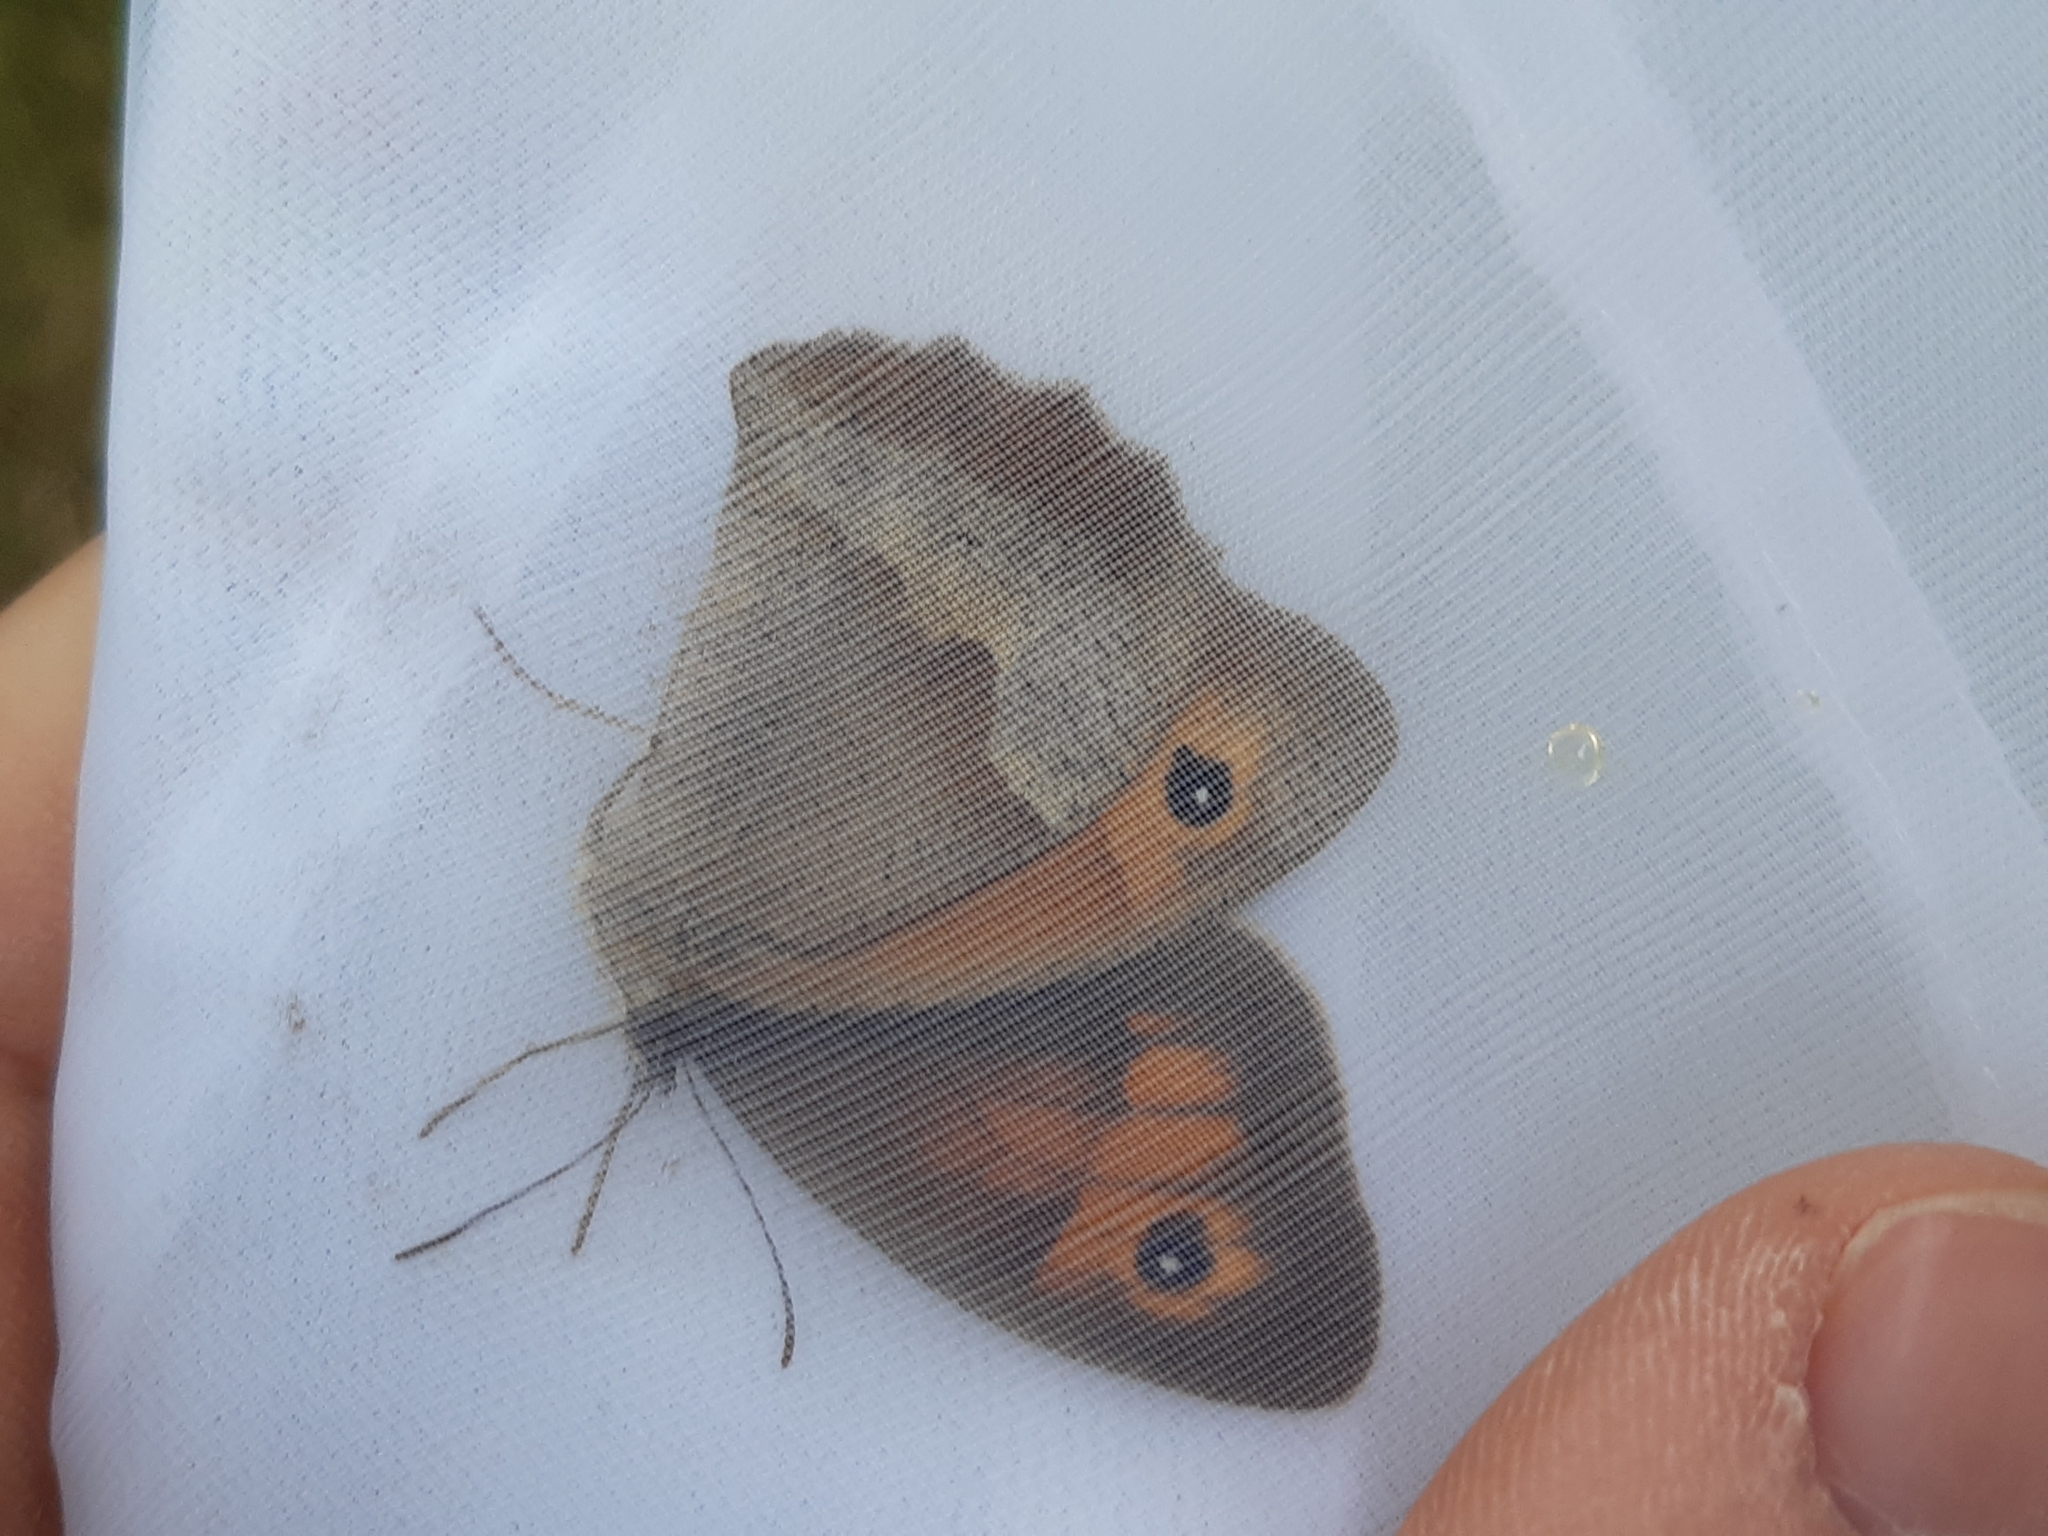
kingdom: Animalia
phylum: Arthropoda
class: Insecta
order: Lepidoptera
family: Nymphalidae
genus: Maniola
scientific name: Maniola jurtina
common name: Meadow brown
